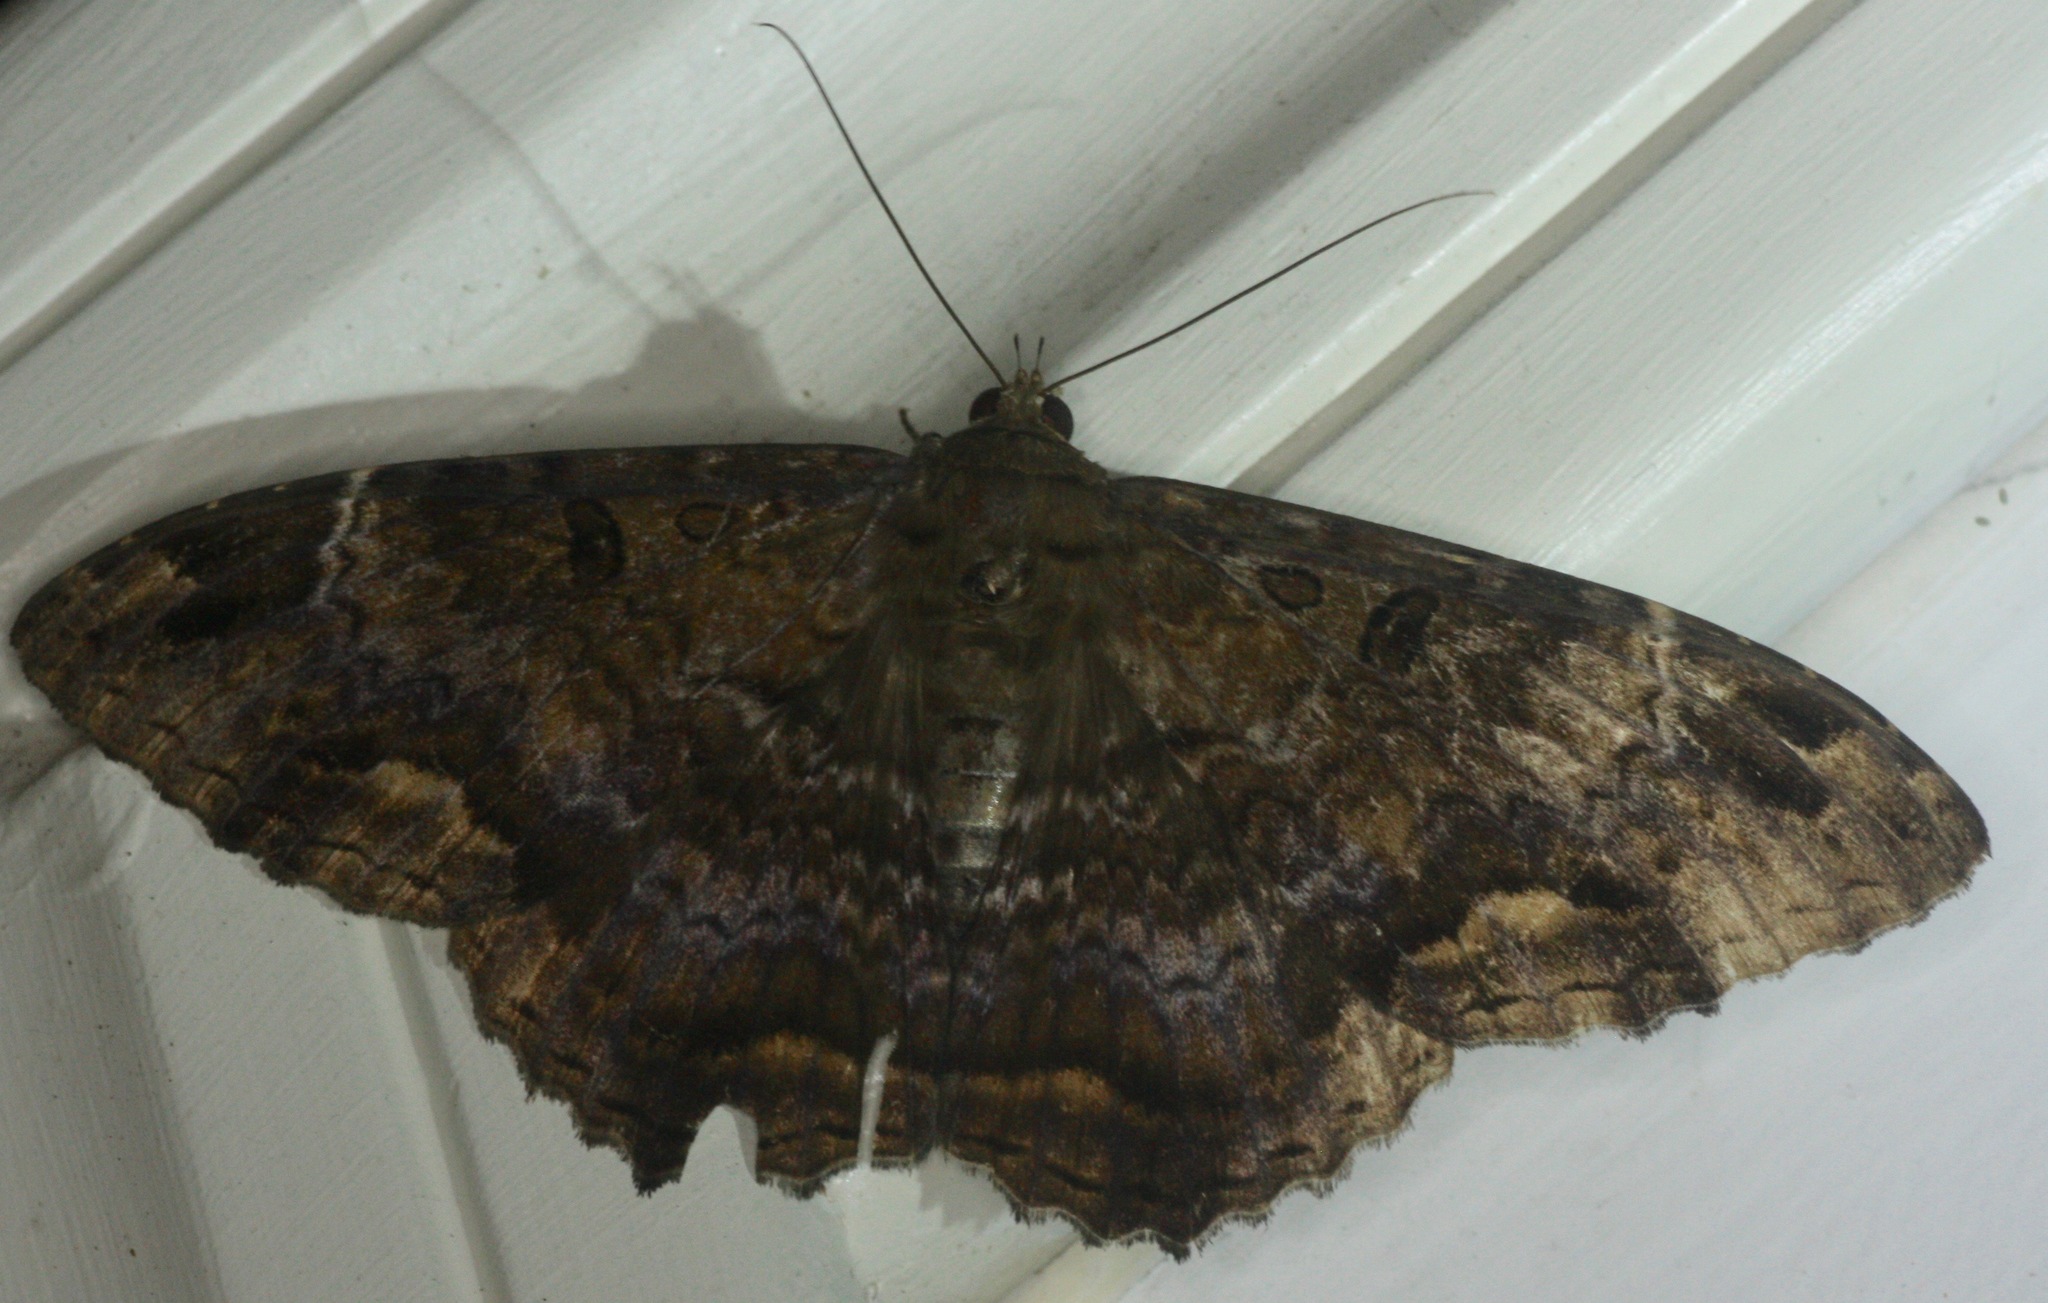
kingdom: Animalia
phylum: Arthropoda
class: Insecta
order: Lepidoptera
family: Erebidae
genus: Ascalapha
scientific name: Ascalapha odorata
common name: Black witch
